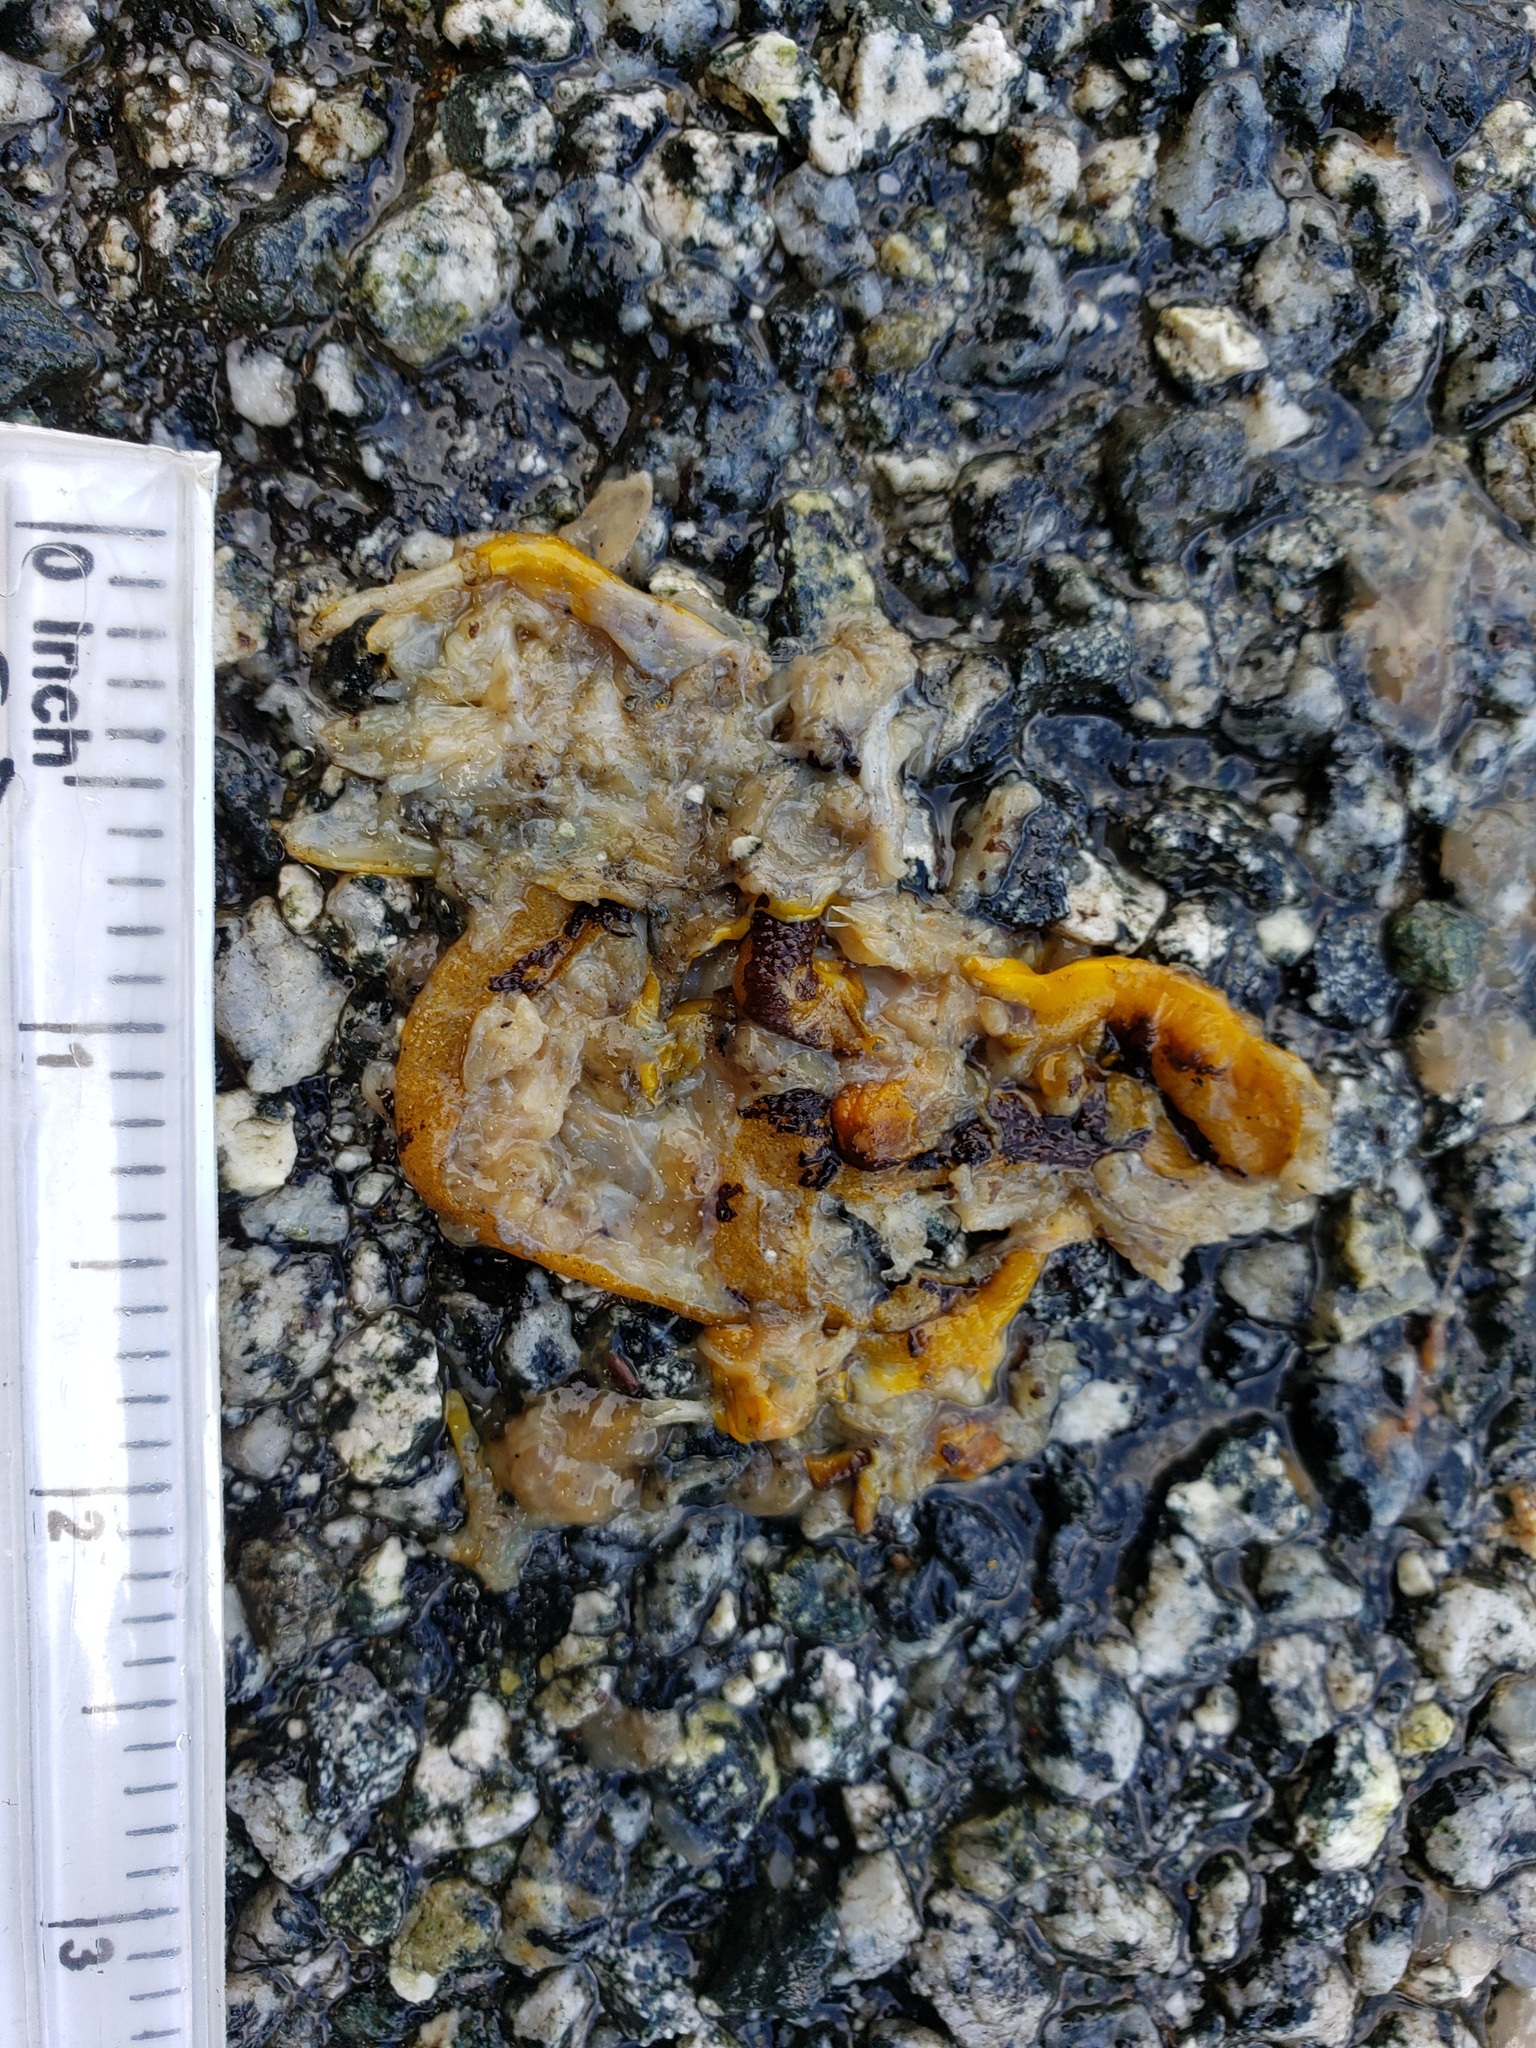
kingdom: Animalia
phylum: Chordata
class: Amphibia
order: Caudata
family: Salamandridae
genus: Taricha
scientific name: Taricha
